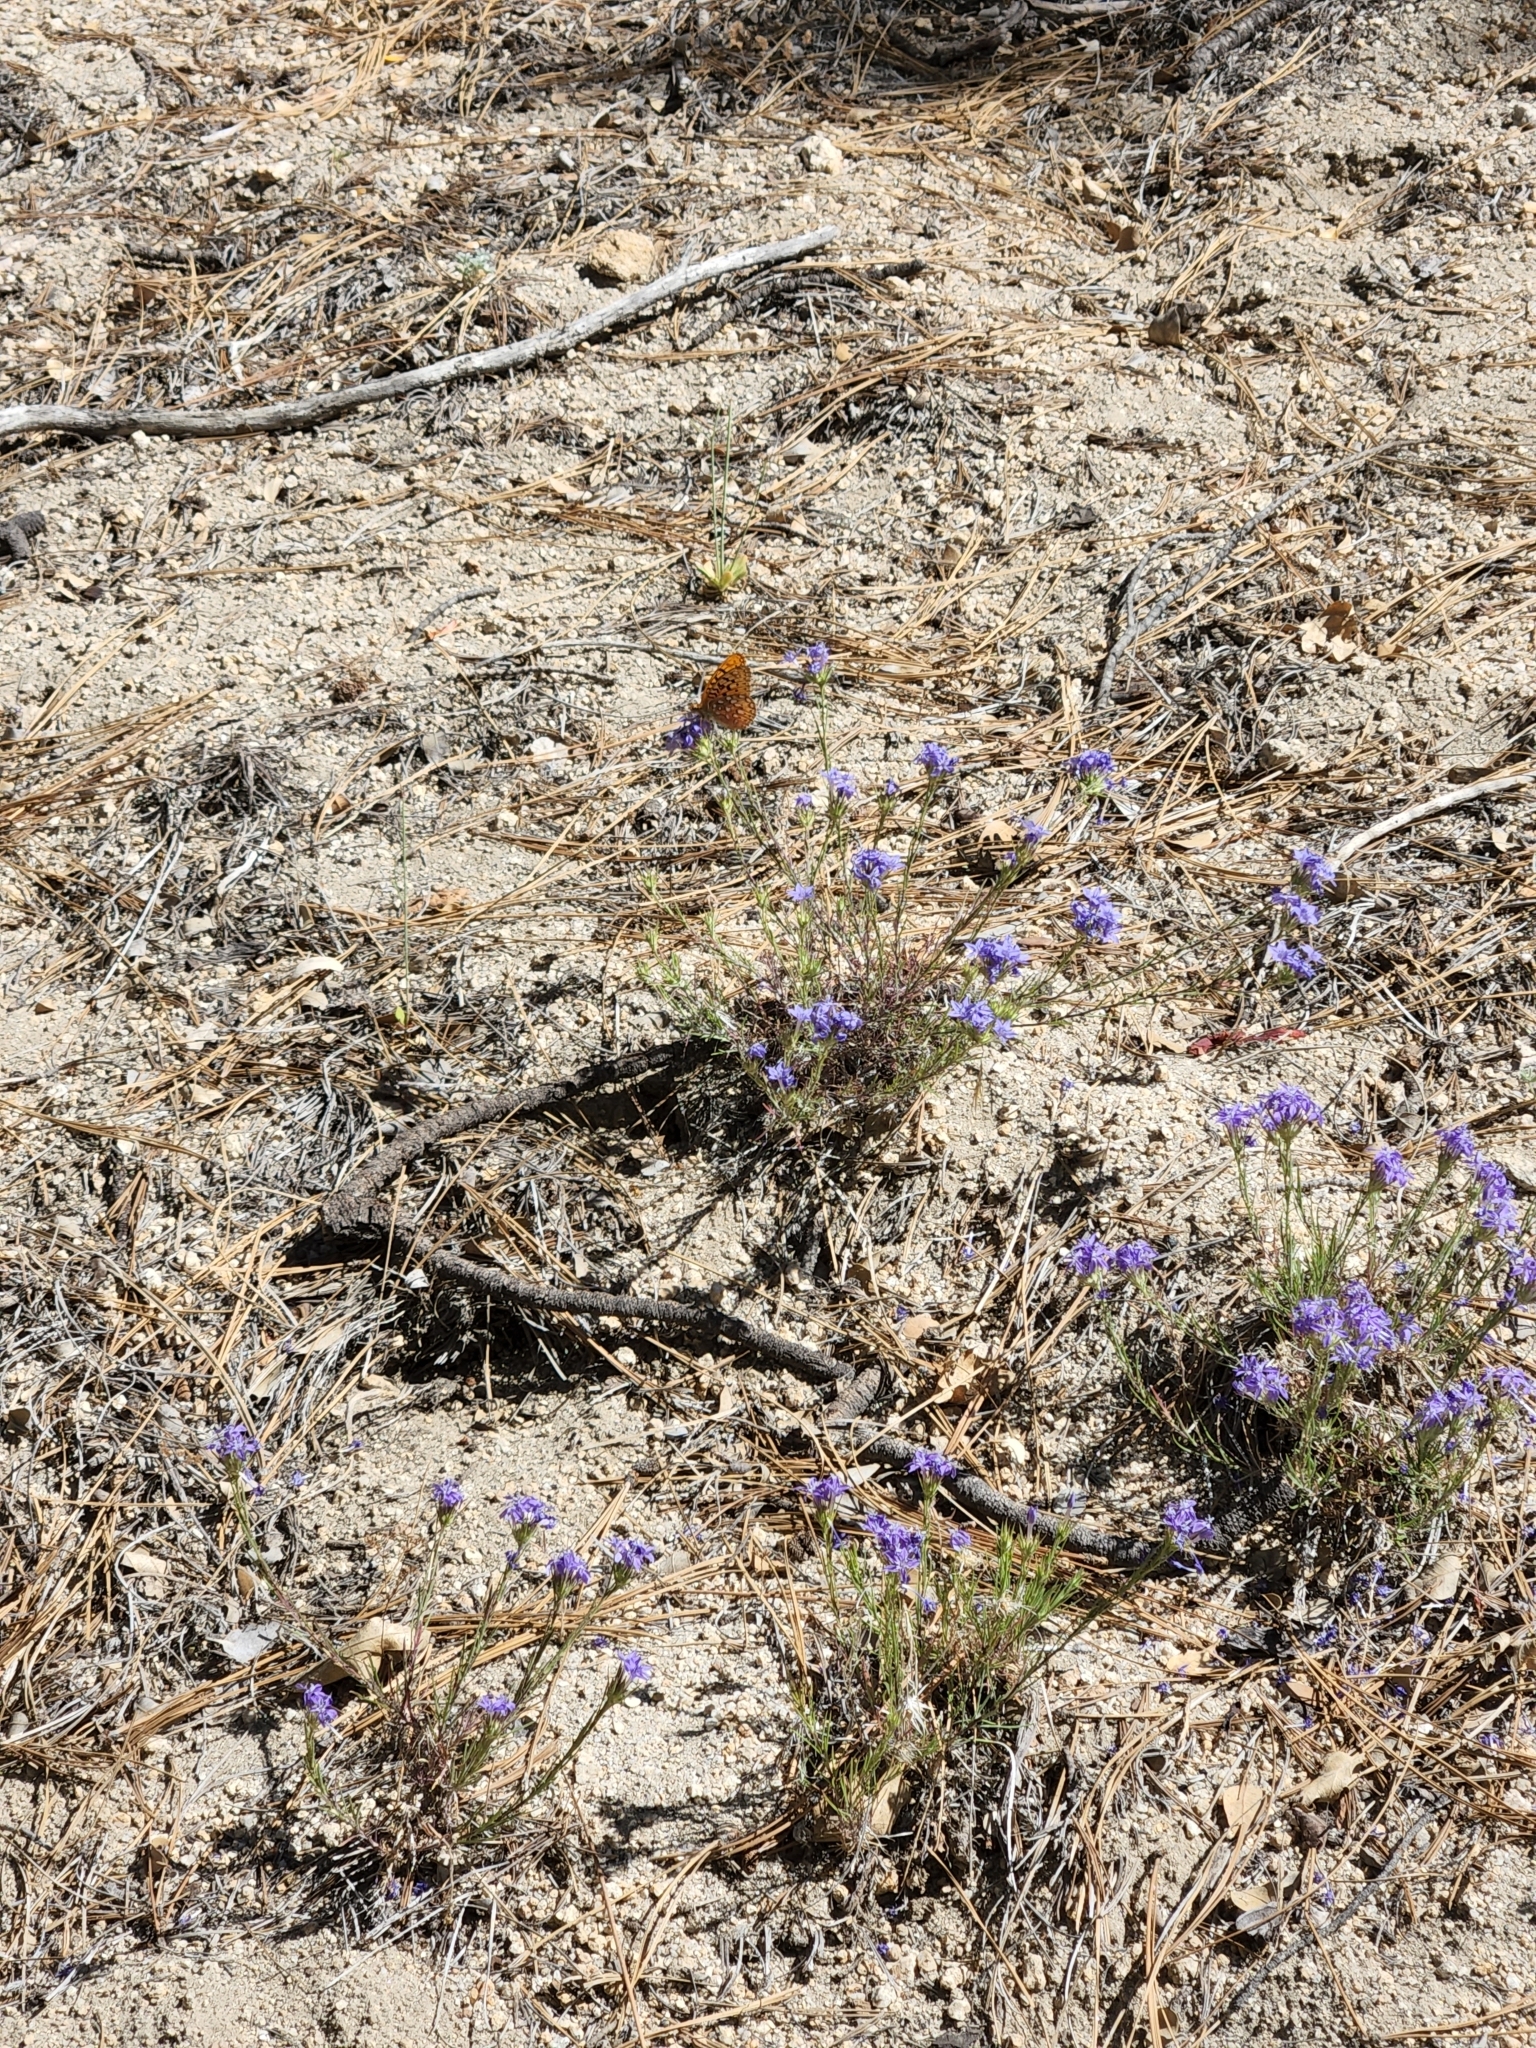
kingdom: Animalia
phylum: Arthropoda
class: Insecta
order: Lepidoptera
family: Nymphalidae
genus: Argynnis
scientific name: Argynnis coronis
